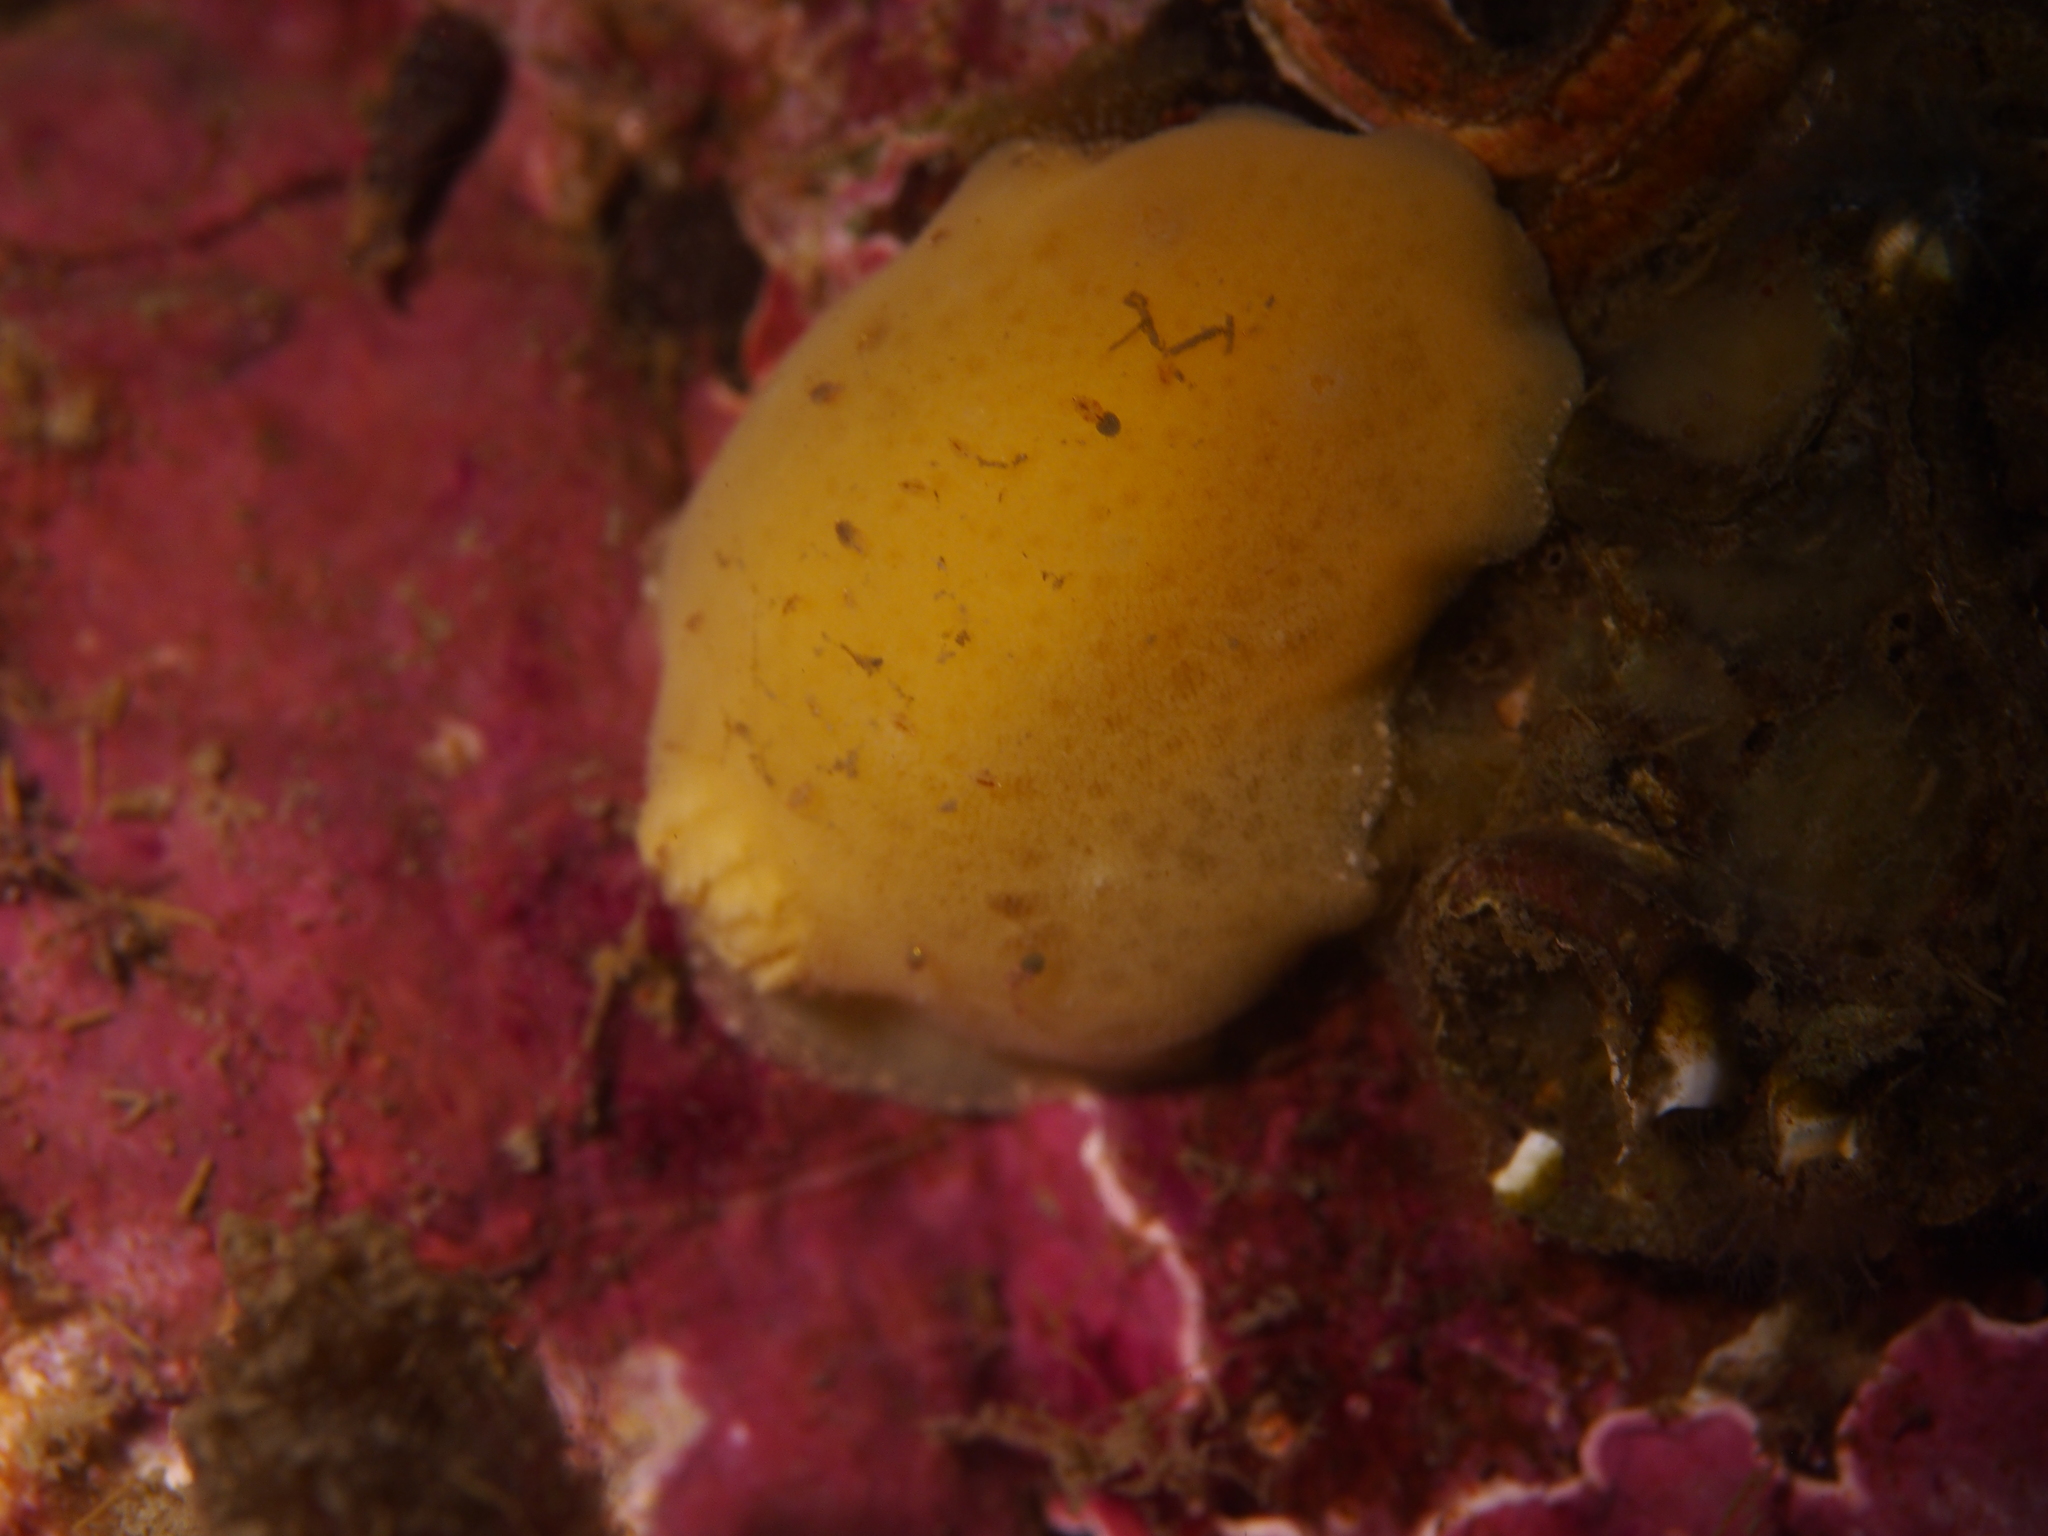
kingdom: Animalia
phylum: Mollusca
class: Gastropoda
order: Nudibranchia
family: Discodorididae
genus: Jorunna
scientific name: Jorunna tomentosa
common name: Grey sea slug
